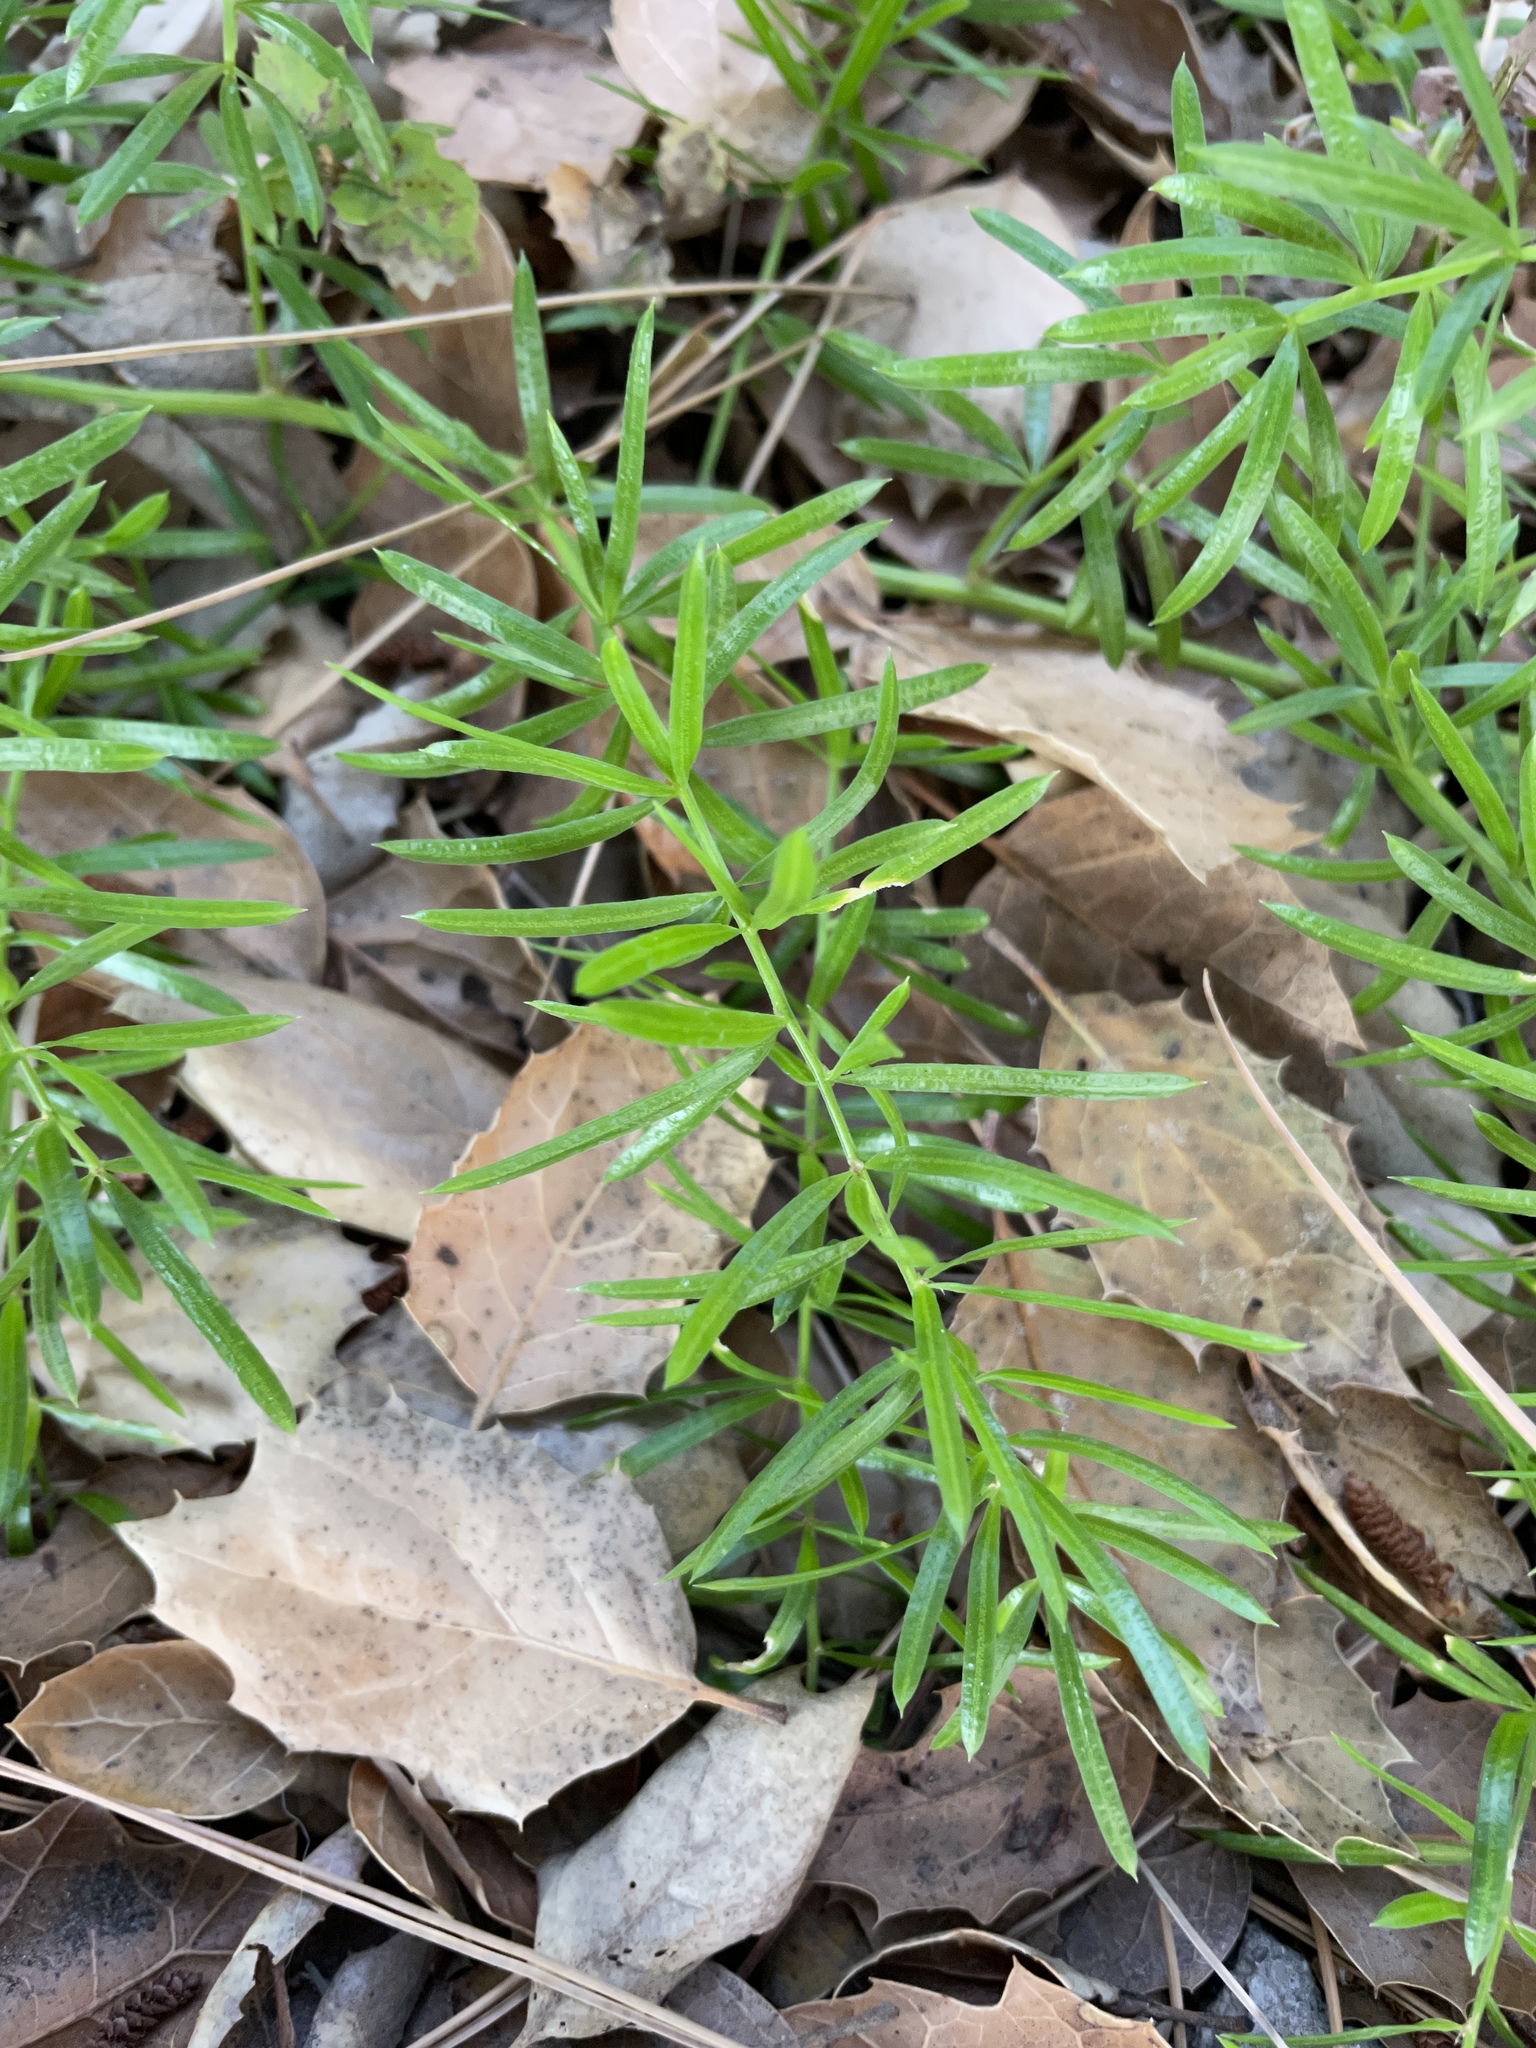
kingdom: Plantae
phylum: Tracheophyta
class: Liliopsida
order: Asparagales
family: Asparagaceae
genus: Asparagus
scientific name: Asparagus aethiopicus
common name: Sprenger's asparagus fern
